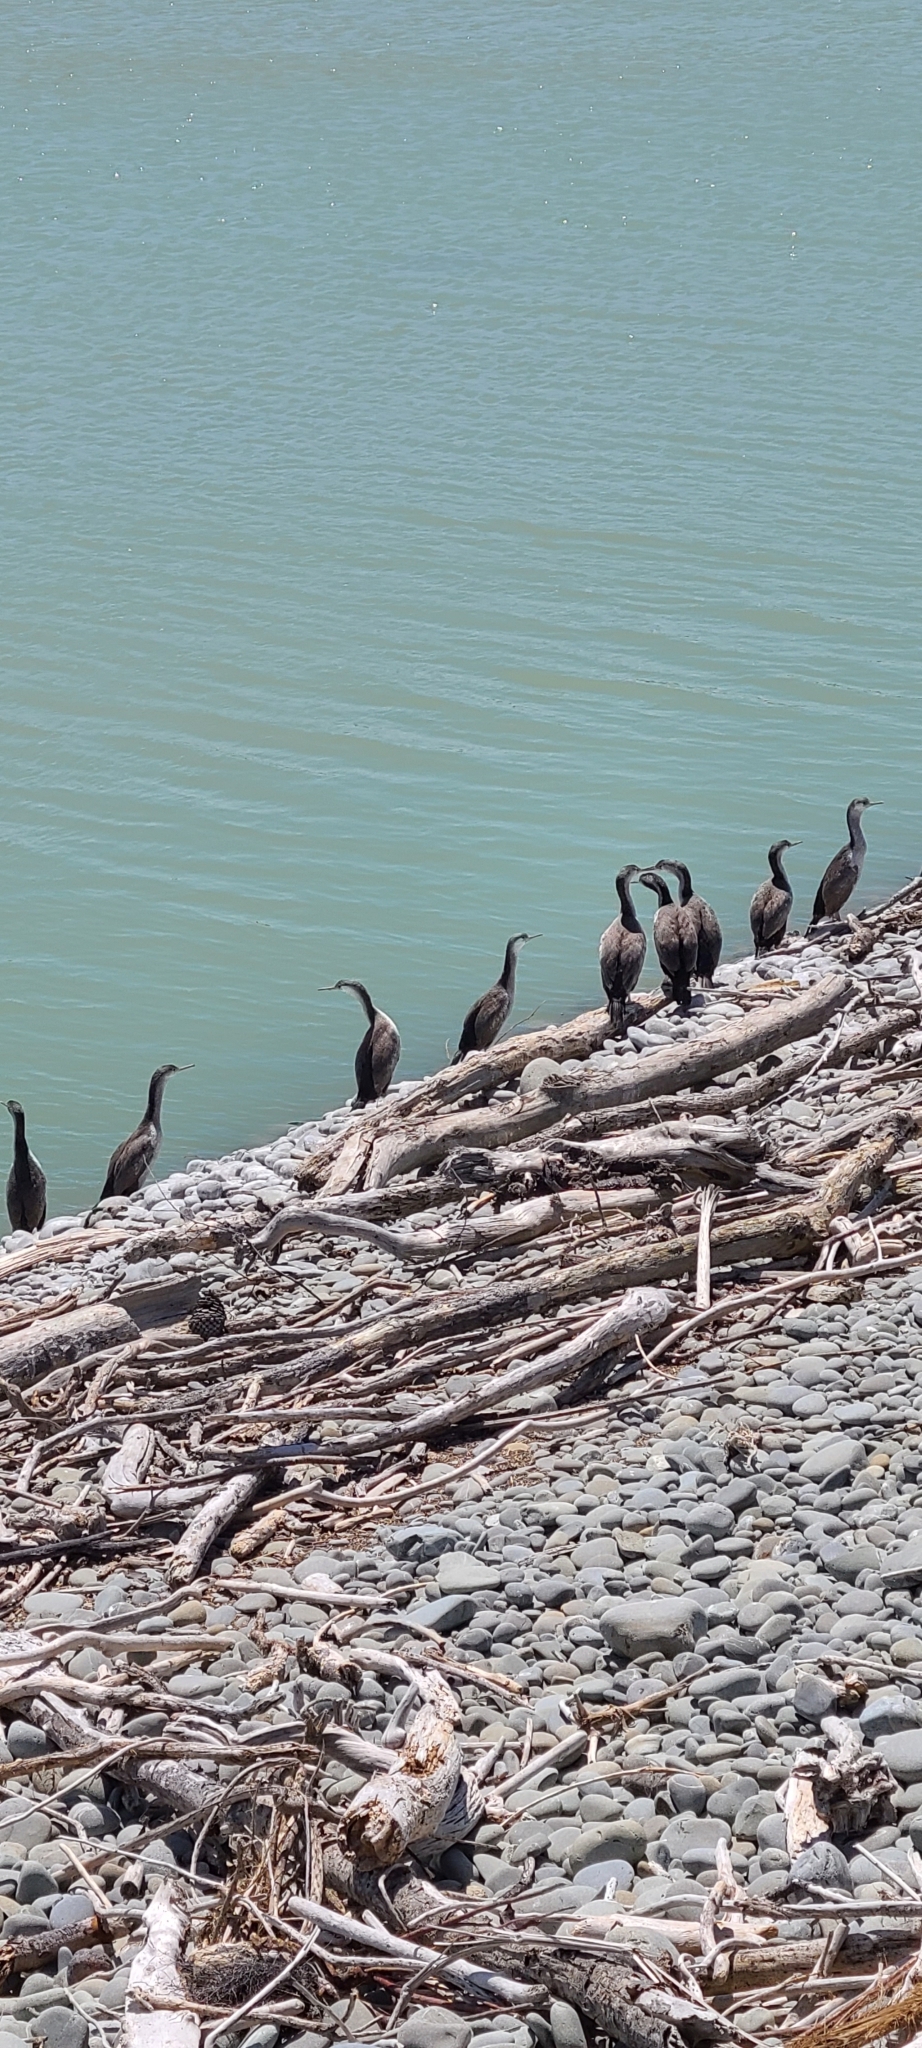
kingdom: Animalia
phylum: Chordata
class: Aves
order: Suliformes
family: Phalacrocoracidae
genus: Phalacrocorax
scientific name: Phalacrocorax punctatus
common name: Spotted shag
